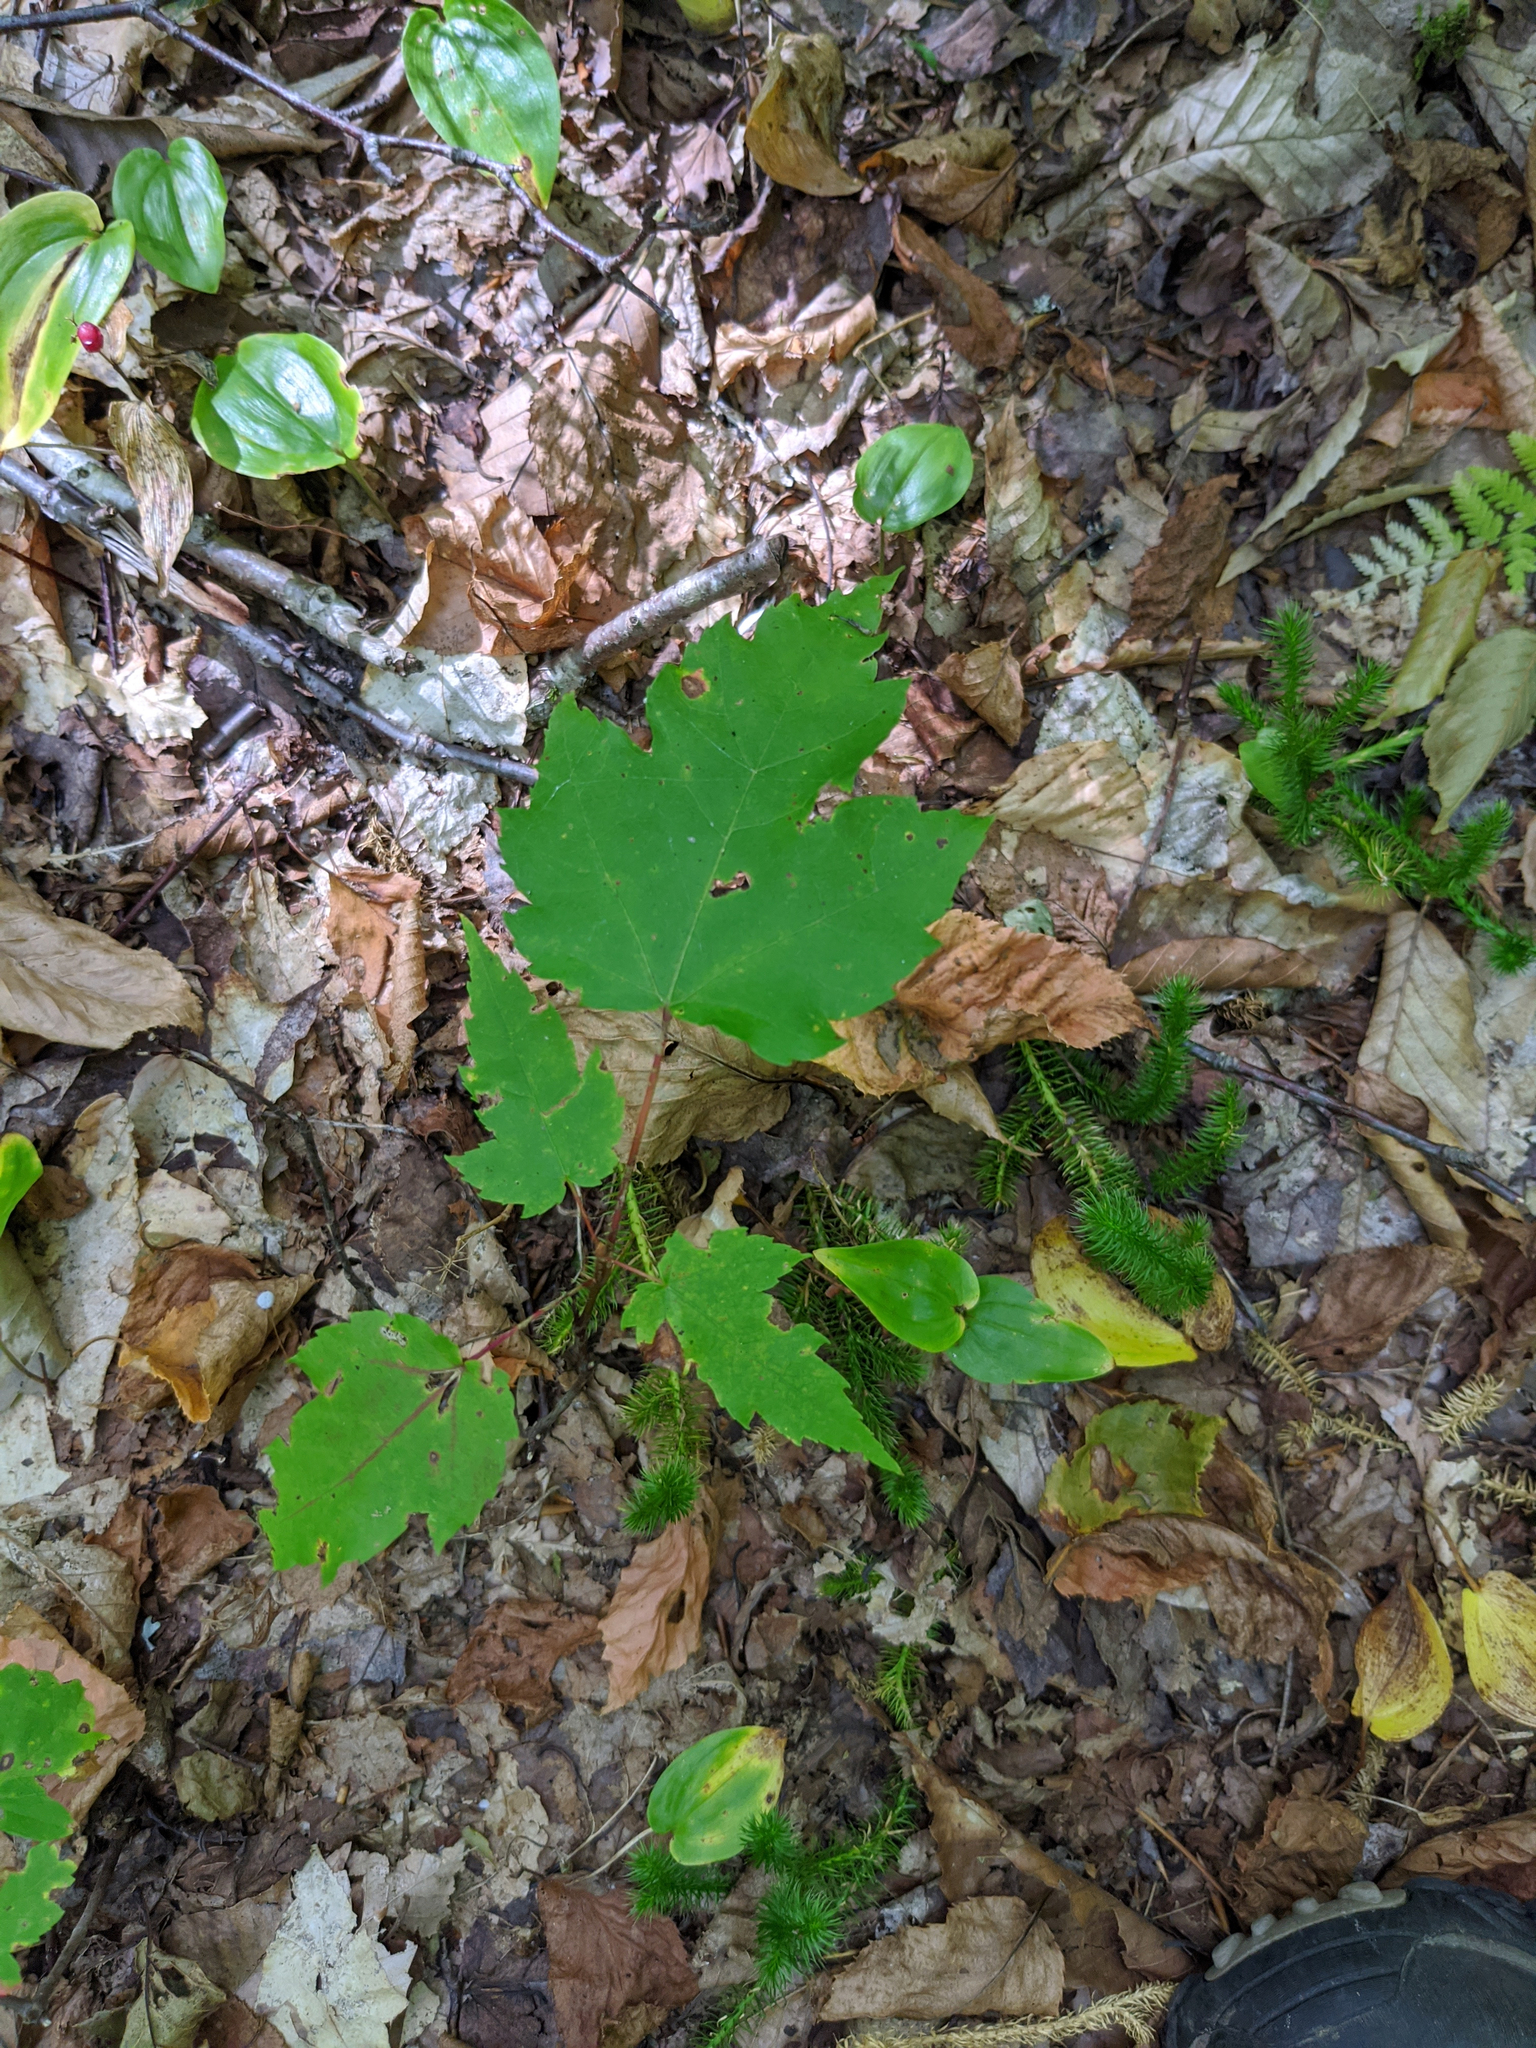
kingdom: Plantae
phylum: Tracheophyta
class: Magnoliopsida
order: Sapindales
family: Sapindaceae
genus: Acer
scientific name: Acer rubrum
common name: Red maple
